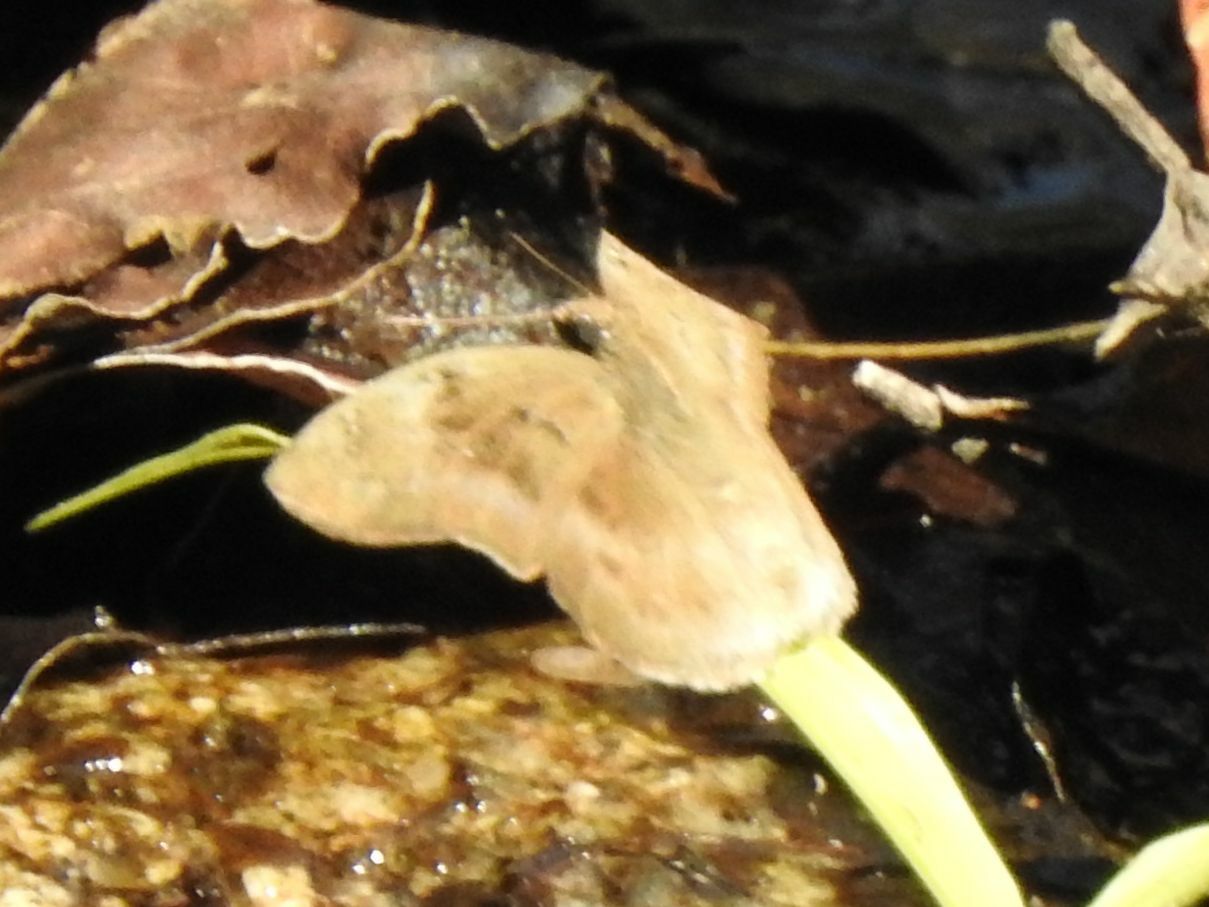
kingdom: Animalia
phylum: Arthropoda
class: Insecta
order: Lepidoptera
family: Hesperiidae
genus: Tagiades
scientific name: Tagiades flesus
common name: Clouded flat
